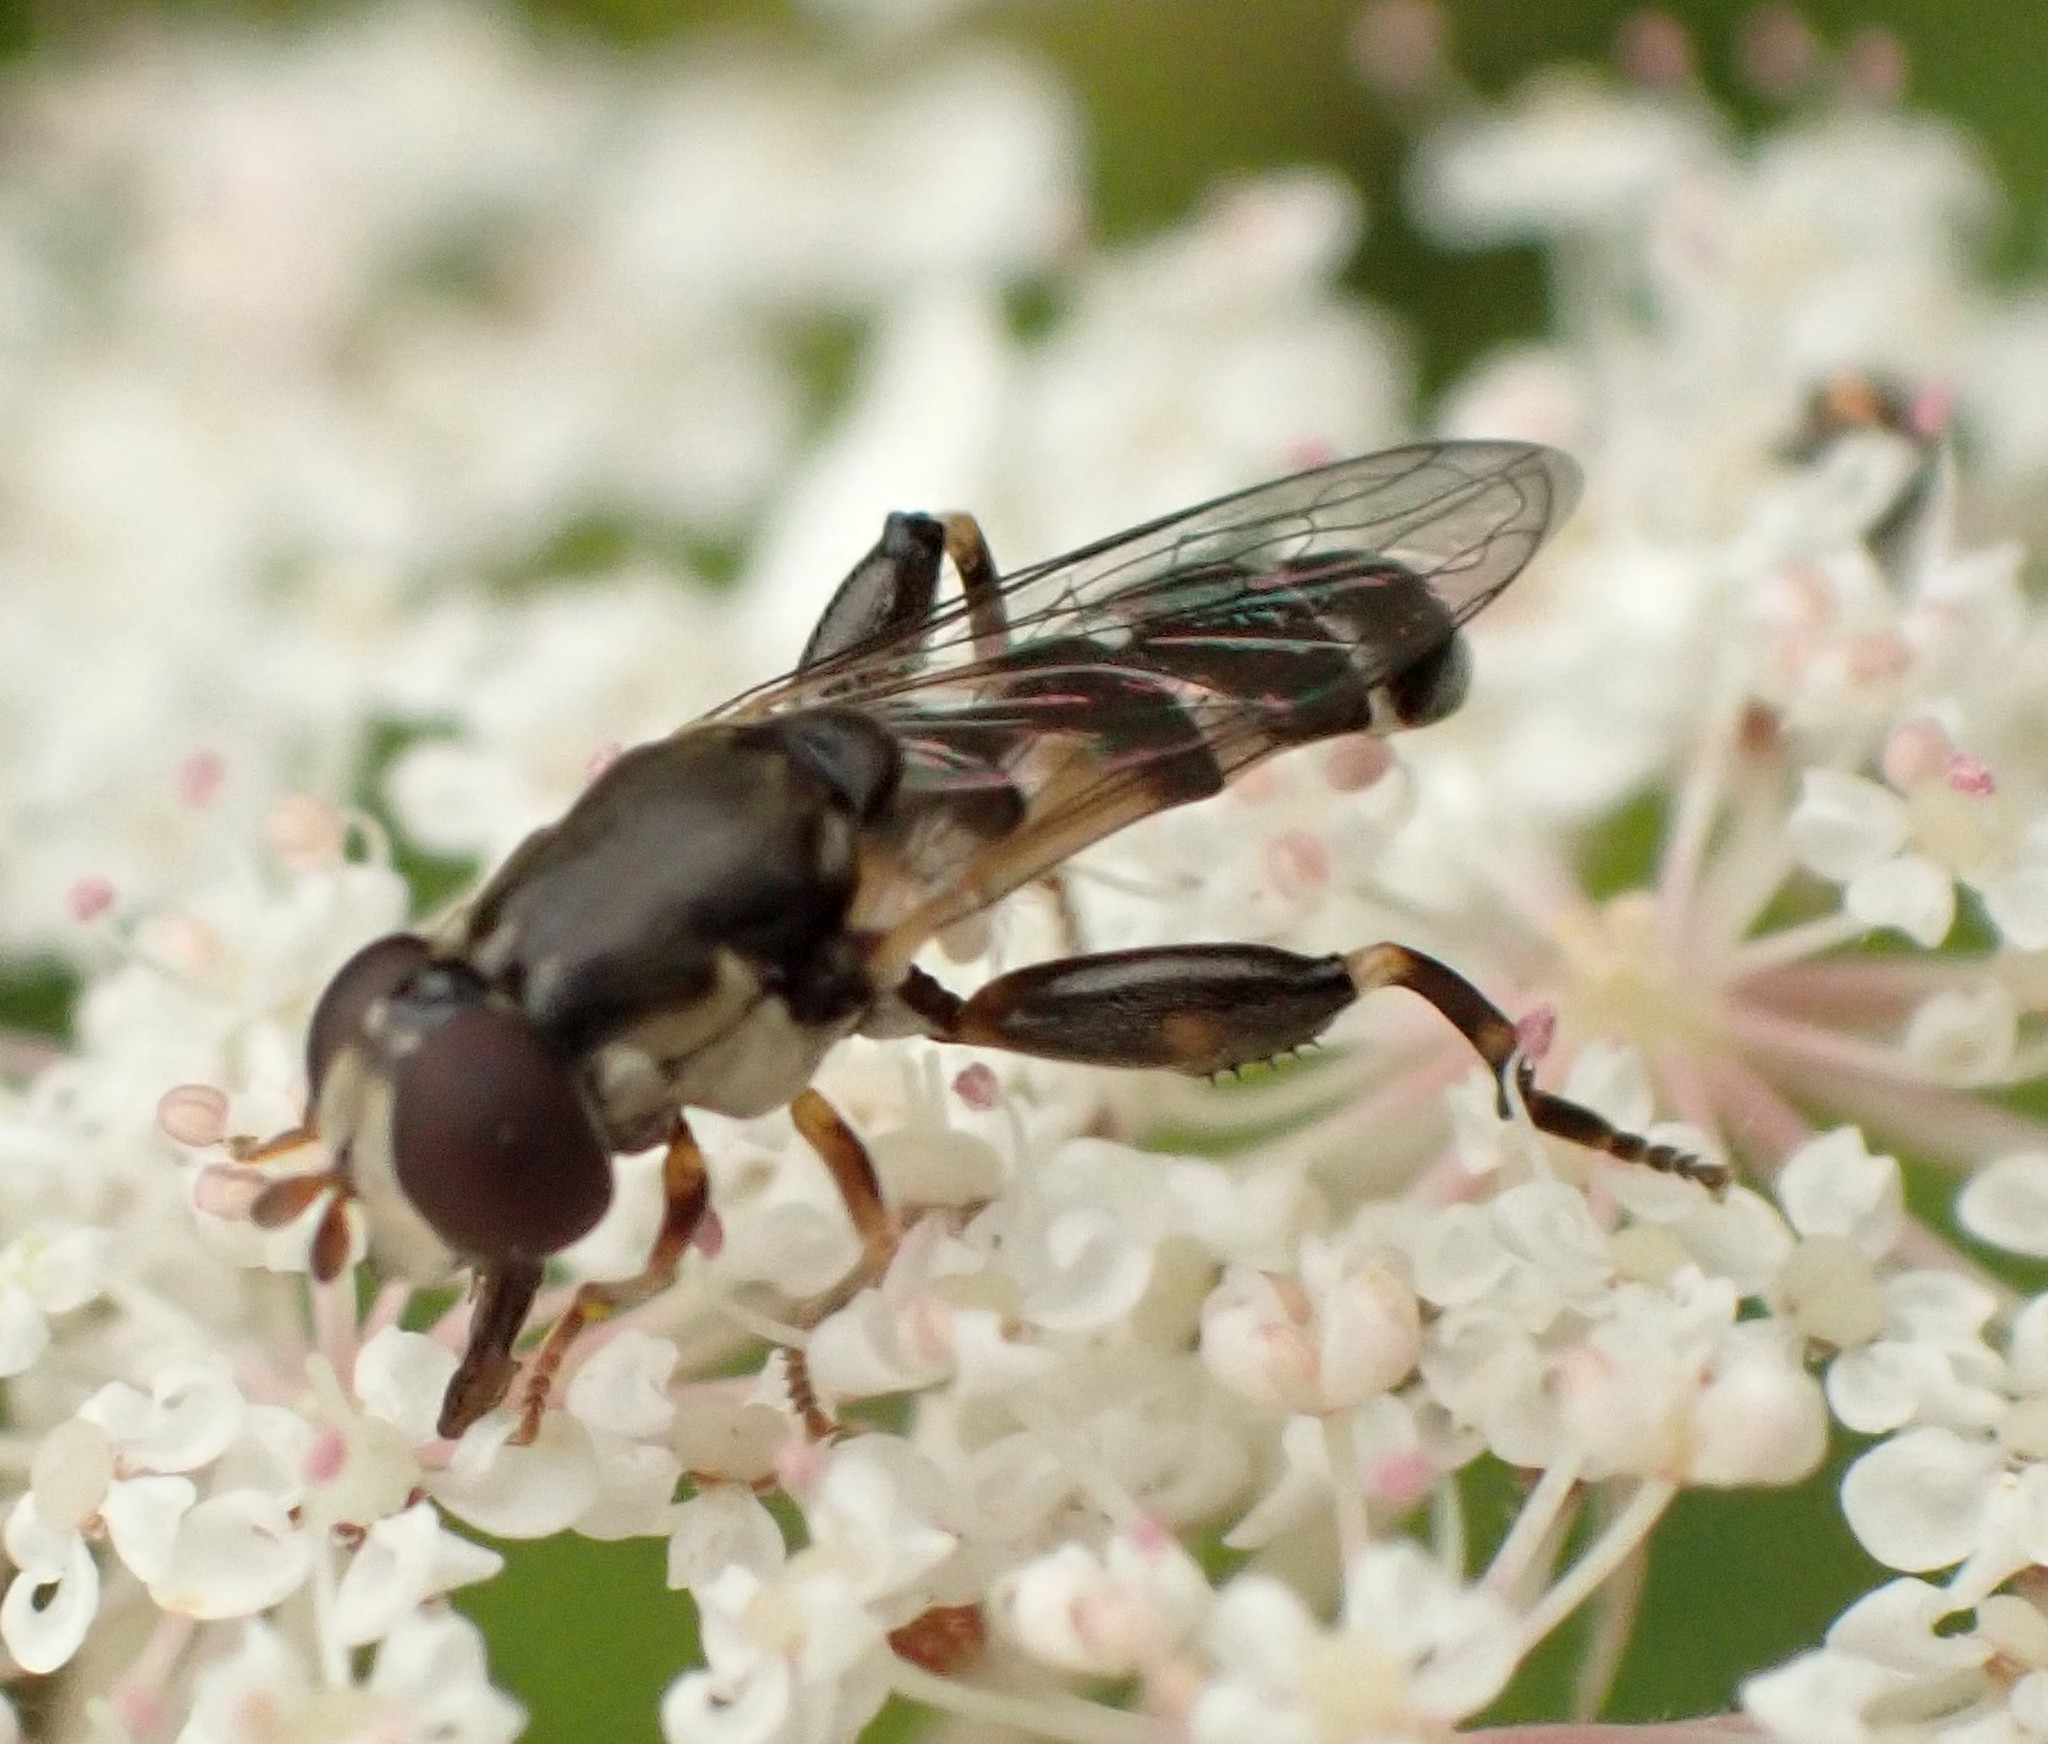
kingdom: Animalia
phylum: Arthropoda
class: Insecta
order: Diptera
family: Syrphidae
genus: Syritta
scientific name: Syritta pipiens
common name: Hover fly
